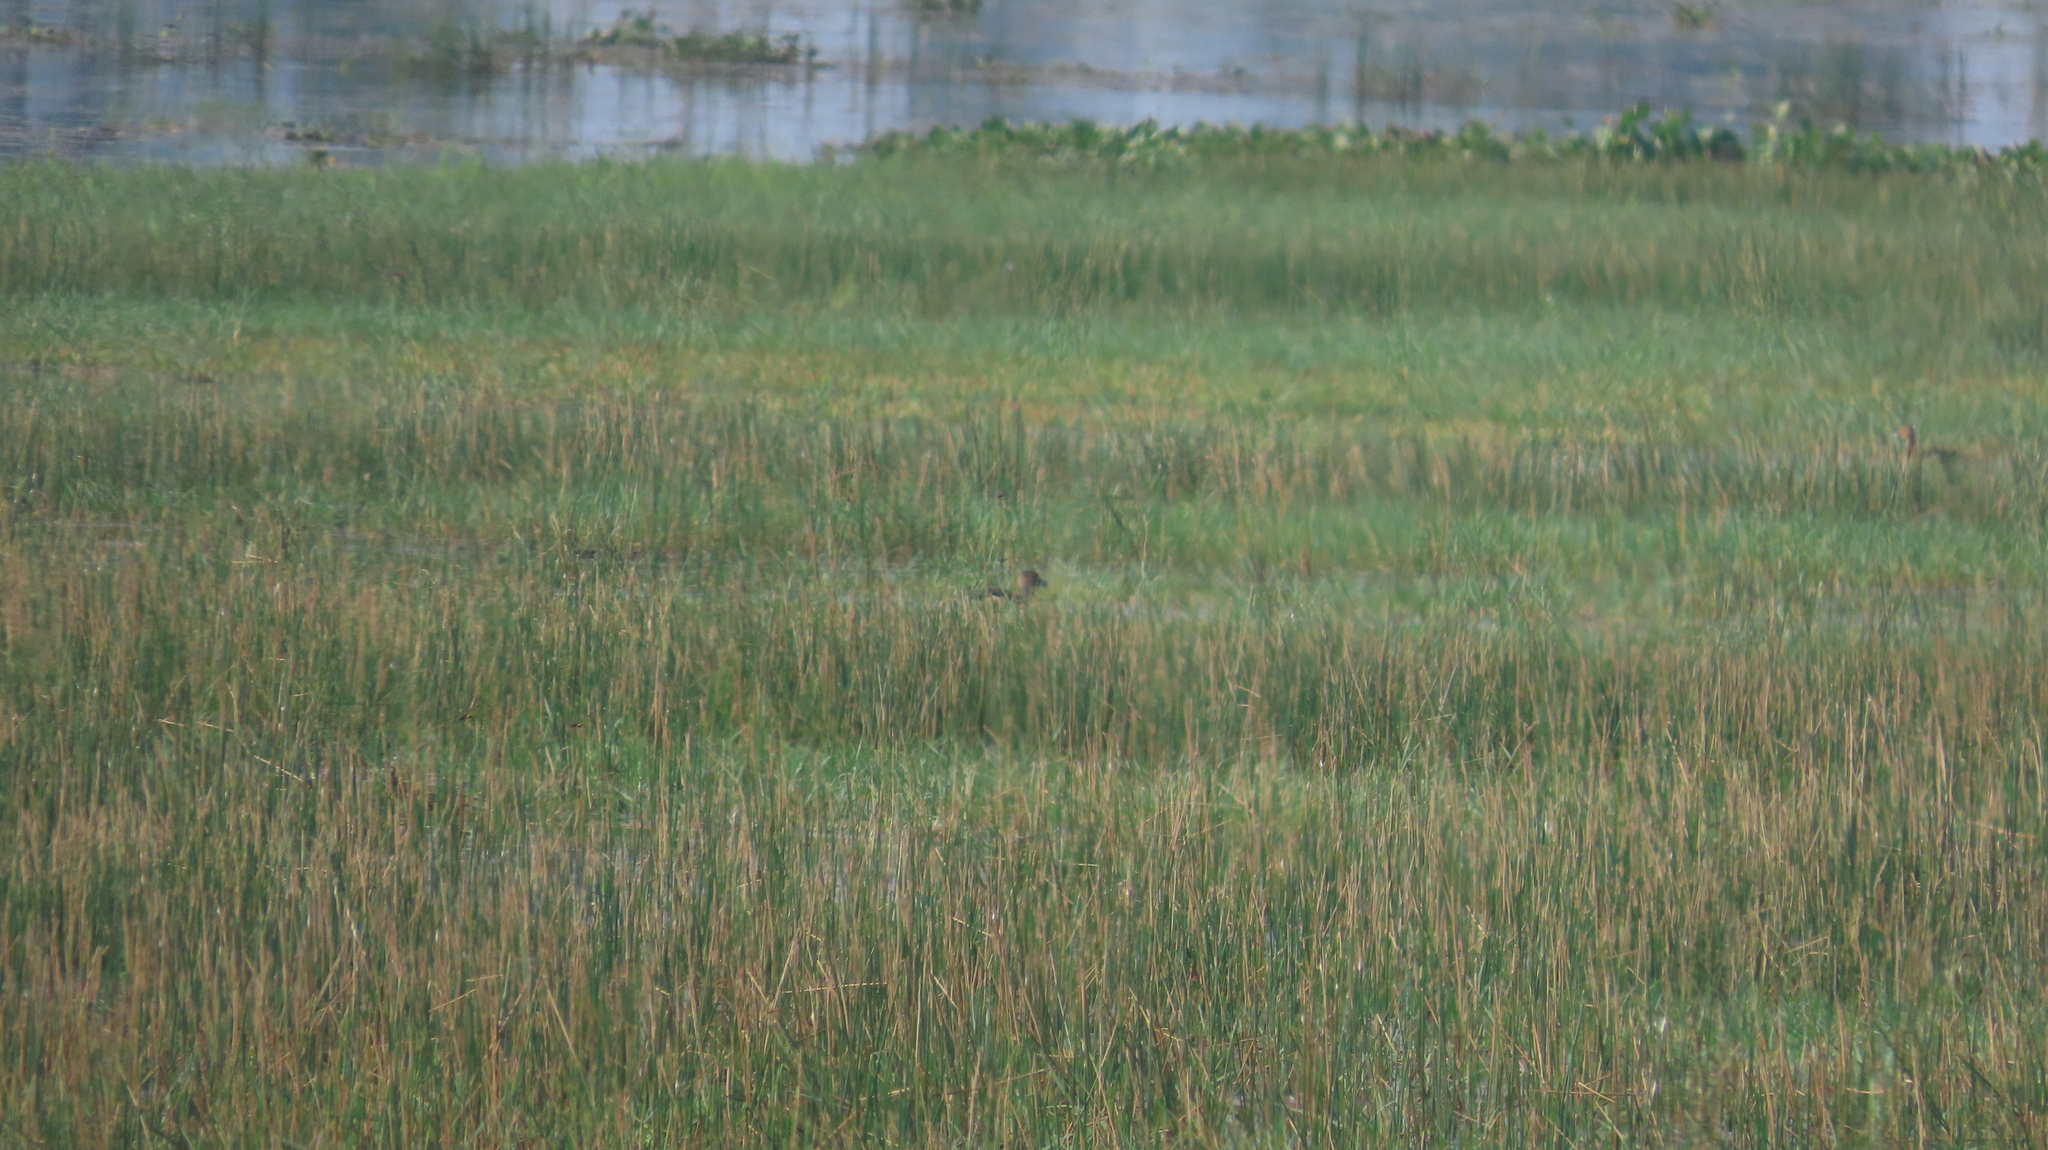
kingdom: Animalia
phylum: Chordata
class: Aves
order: Anseriformes
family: Anatidae
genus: Dendrocygna
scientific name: Dendrocygna javanica
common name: Lesser whistling-duck
